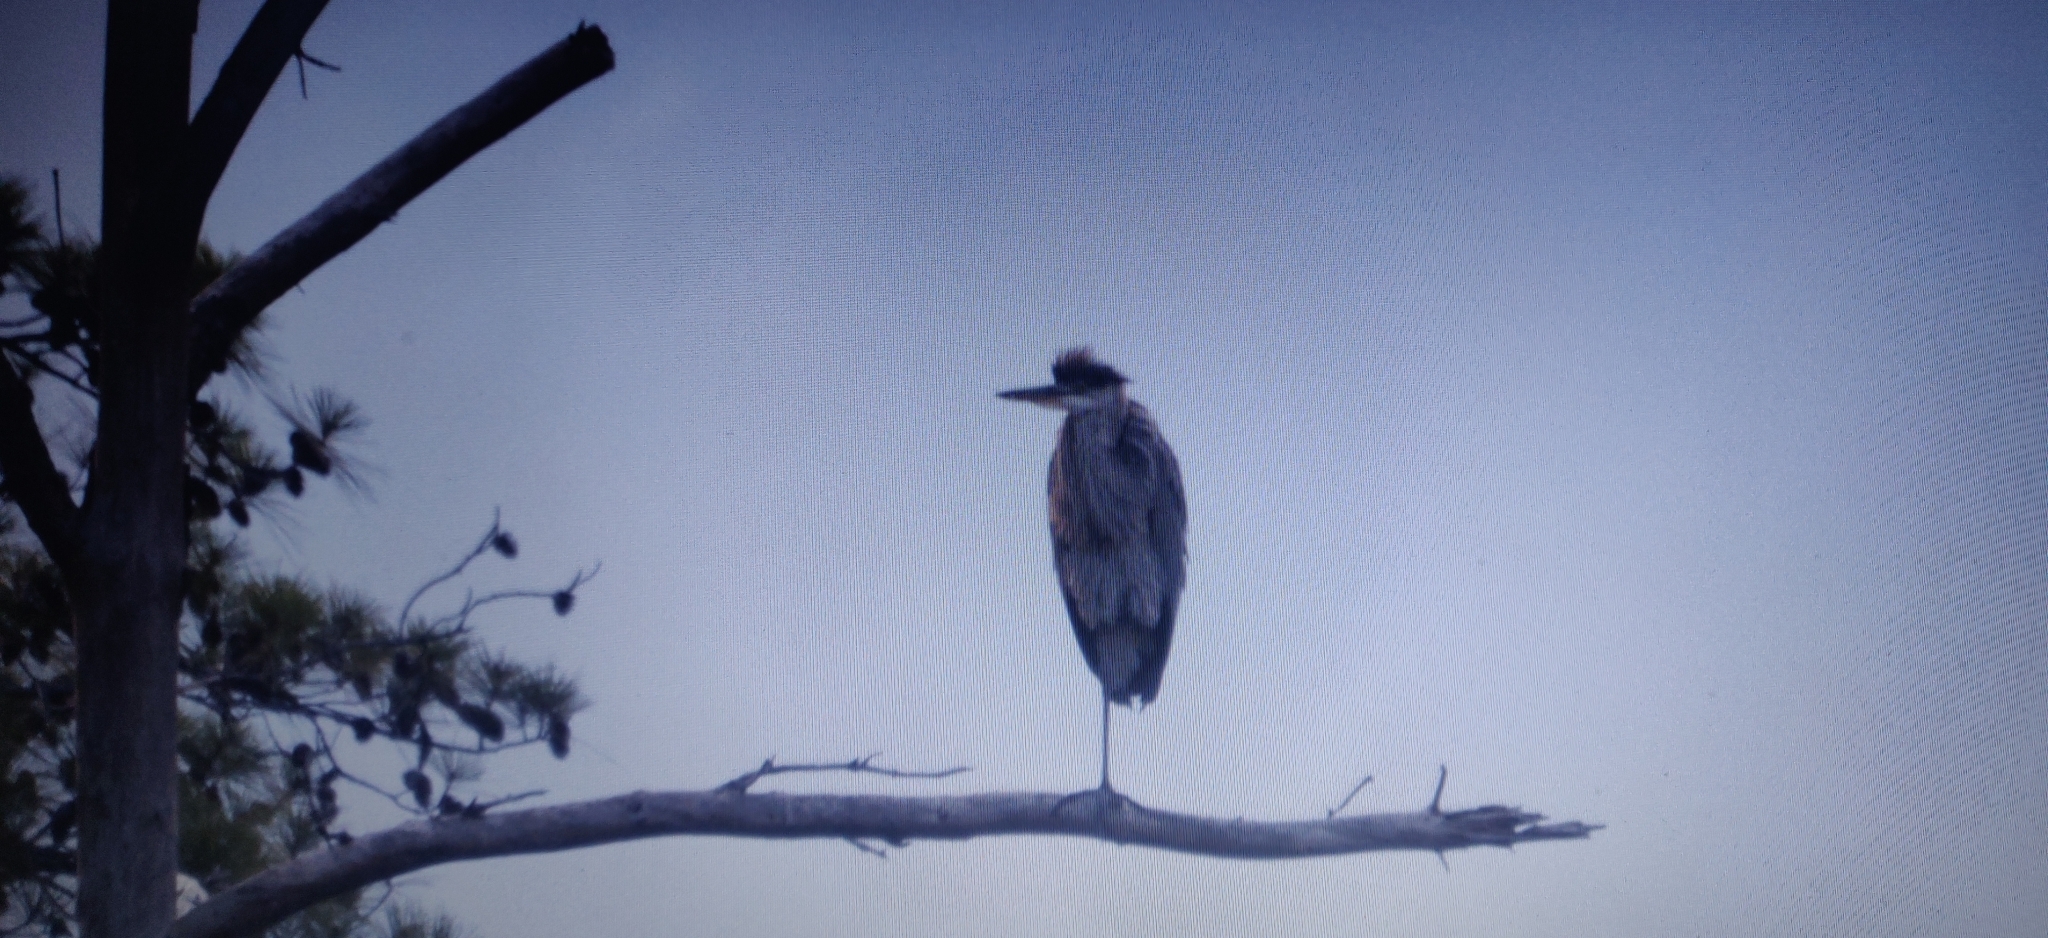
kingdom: Animalia
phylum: Chordata
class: Aves
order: Pelecaniformes
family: Ardeidae
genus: Ardea
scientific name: Ardea herodias
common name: Great blue heron
